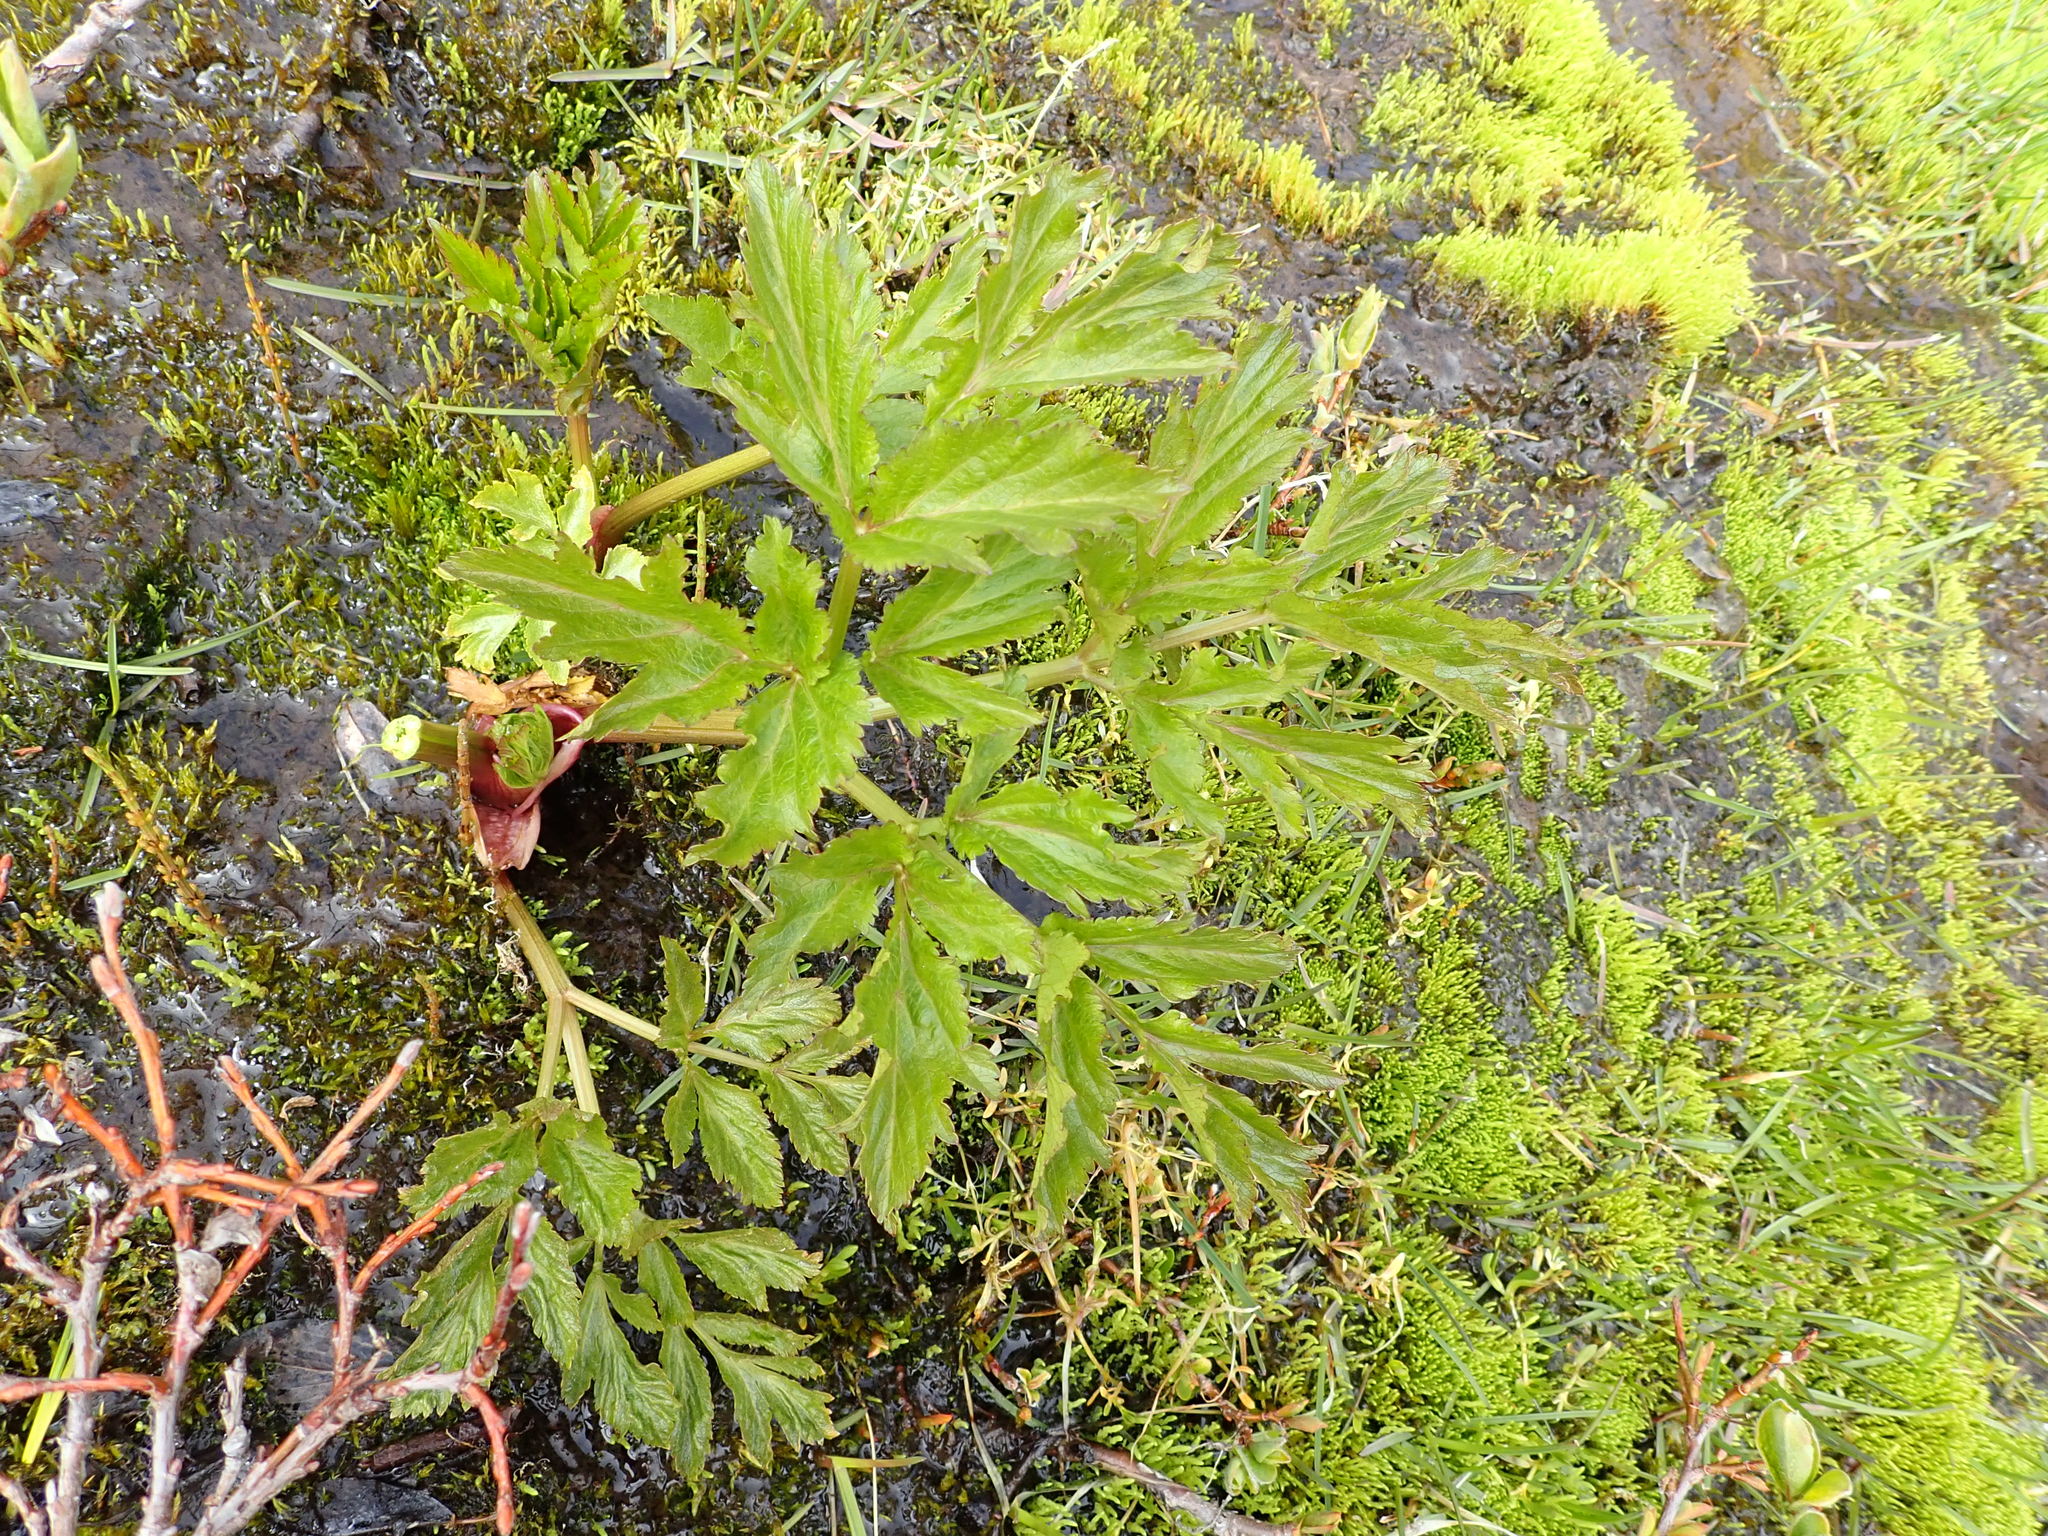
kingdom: Plantae
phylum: Tracheophyta
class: Magnoliopsida
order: Apiales
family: Apiaceae
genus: Angelica
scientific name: Angelica archangelica
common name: Garden angelica
